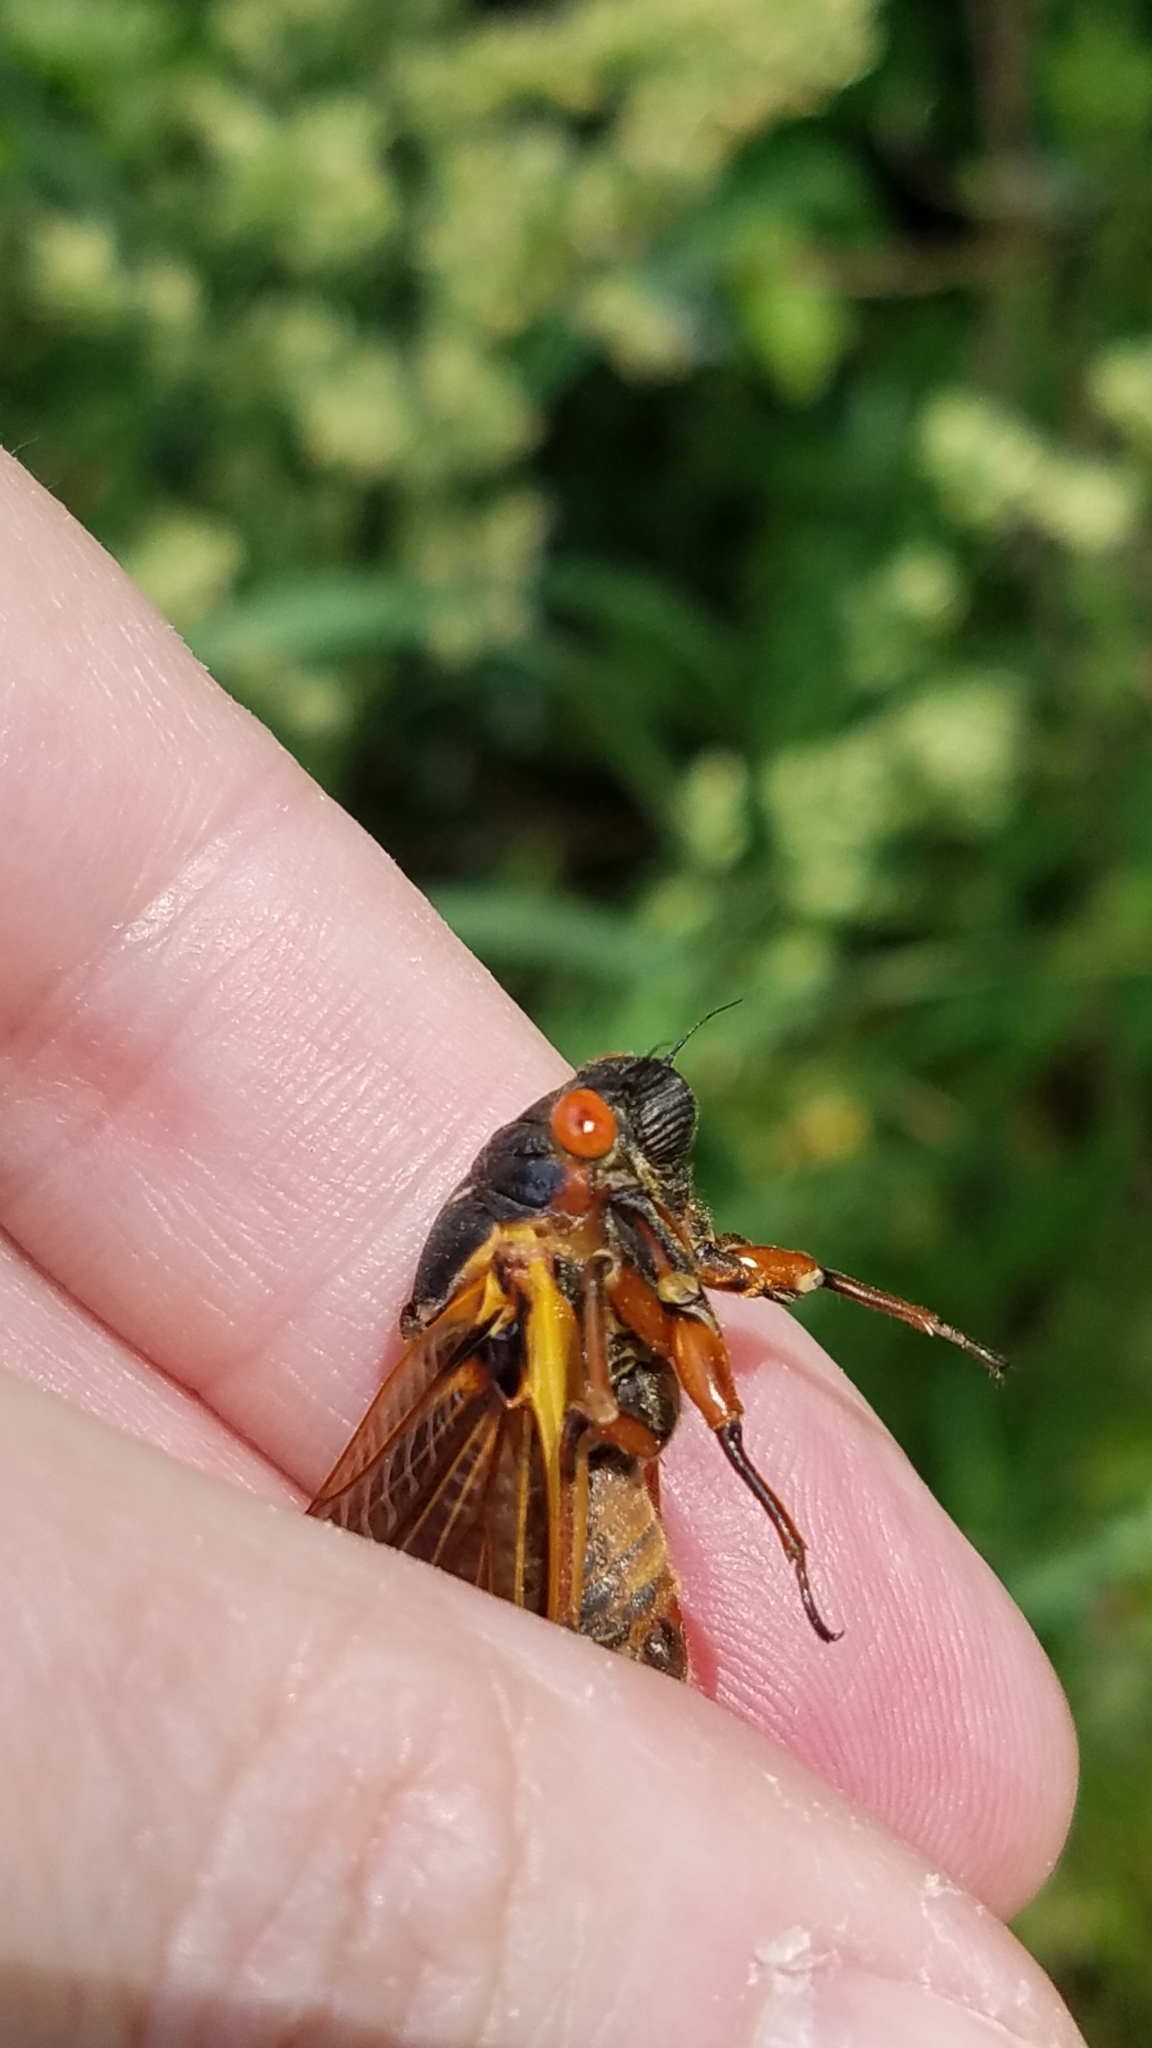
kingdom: Animalia
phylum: Arthropoda
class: Insecta
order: Hemiptera
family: Cicadidae
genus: Magicicada
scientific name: Magicicada septendecim
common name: Periodical cicada
